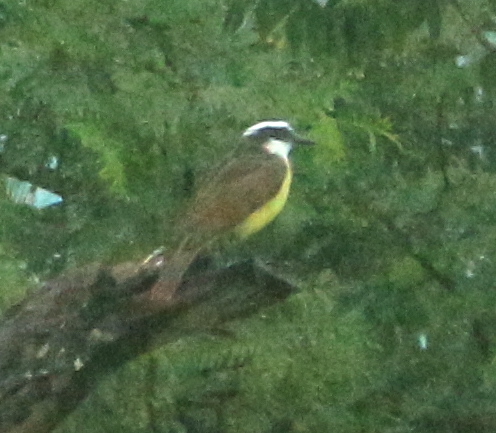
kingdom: Animalia
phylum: Chordata
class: Aves
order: Passeriformes
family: Tyrannidae
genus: Pitangus
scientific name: Pitangus sulphuratus
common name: Great kiskadee
